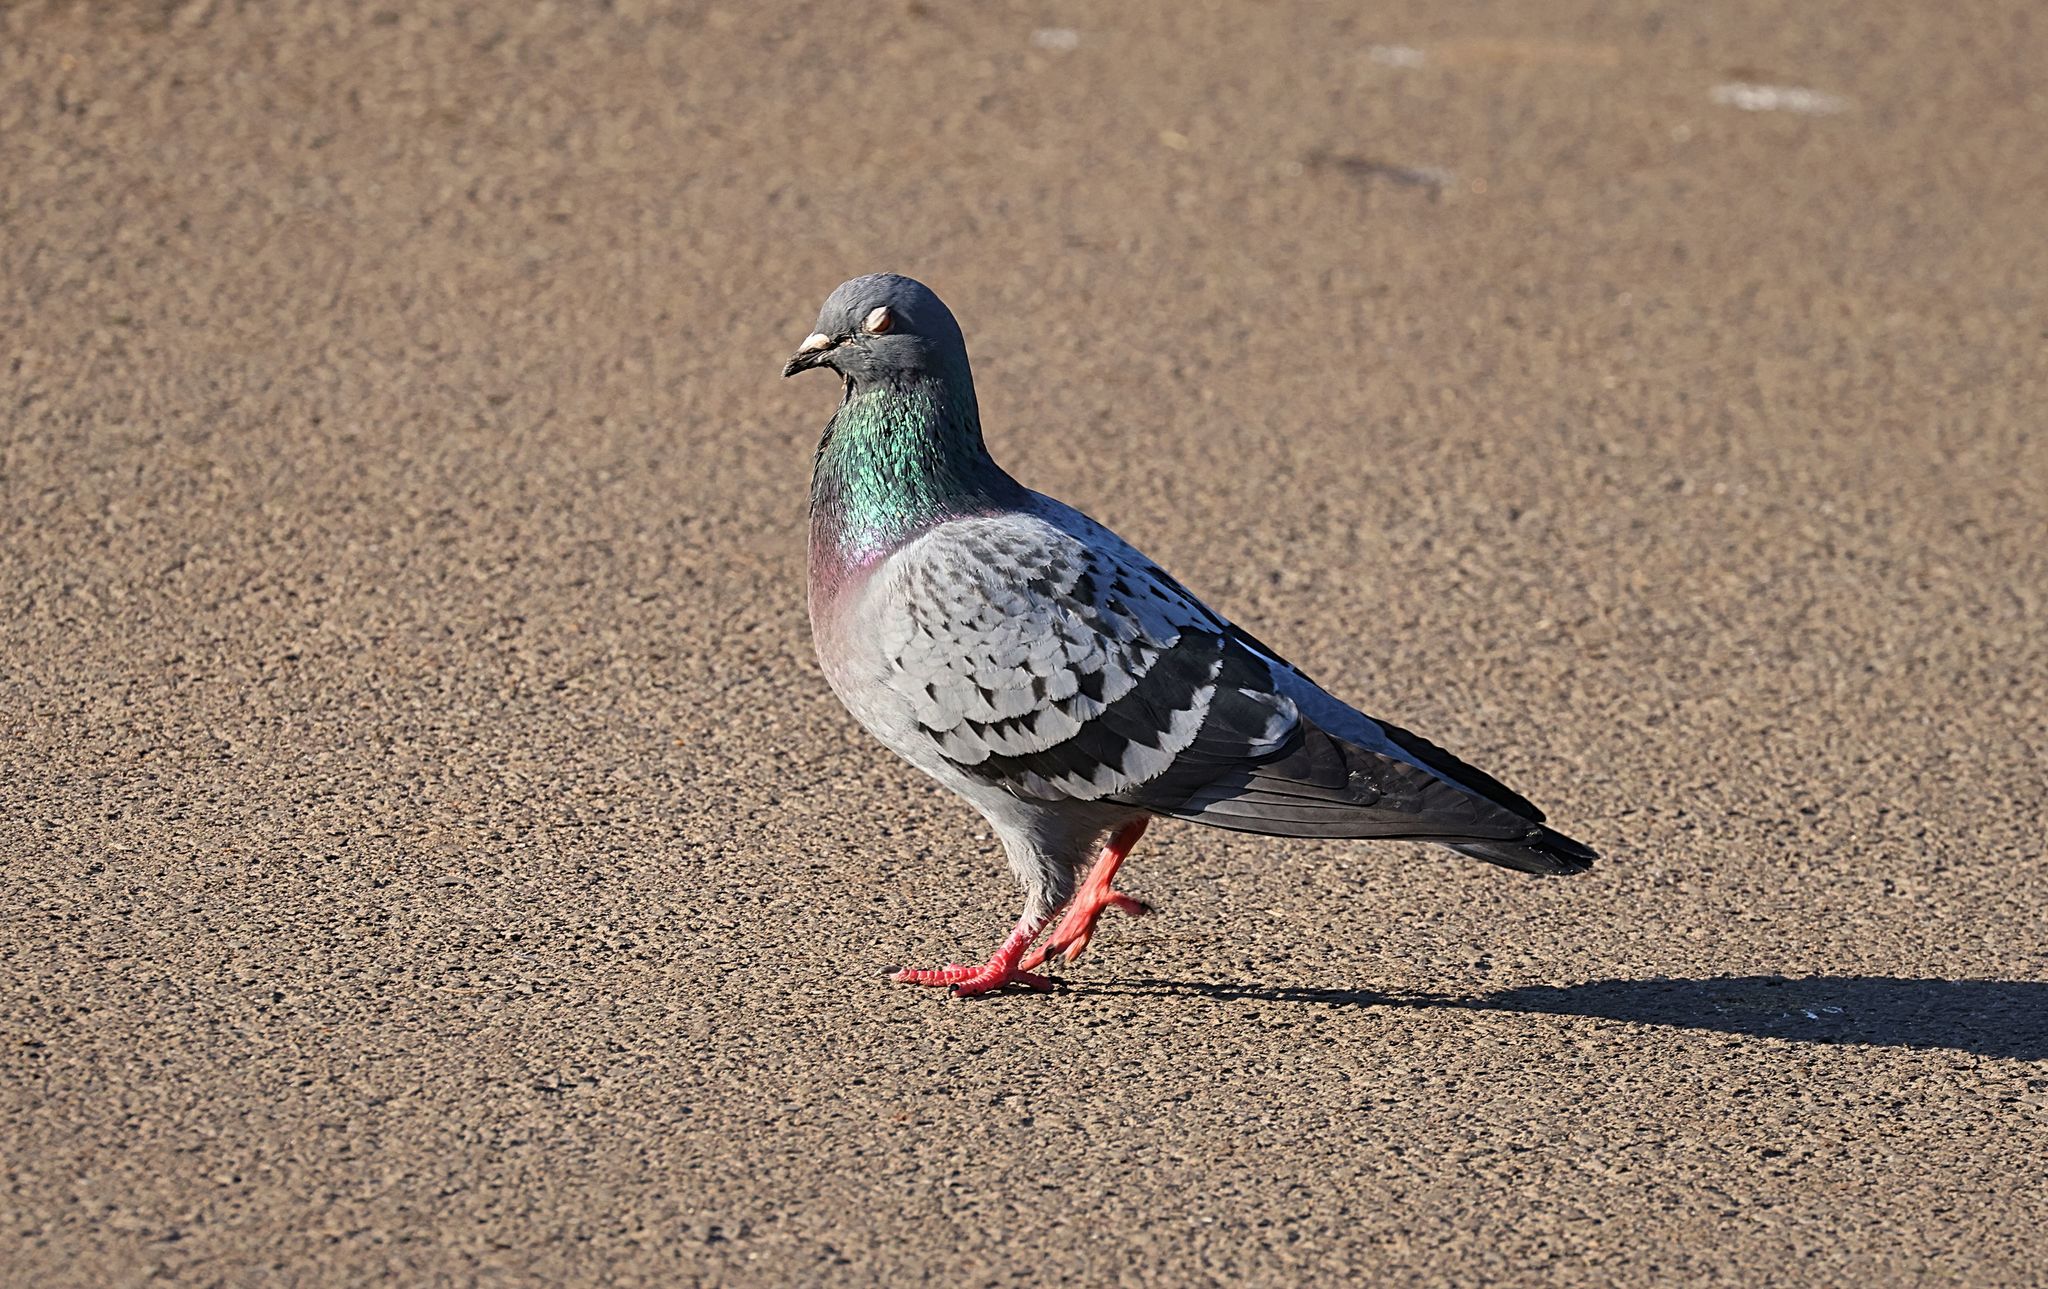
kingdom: Animalia
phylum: Chordata
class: Aves
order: Columbiformes
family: Columbidae
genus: Columba
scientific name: Columba livia
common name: Rock pigeon
